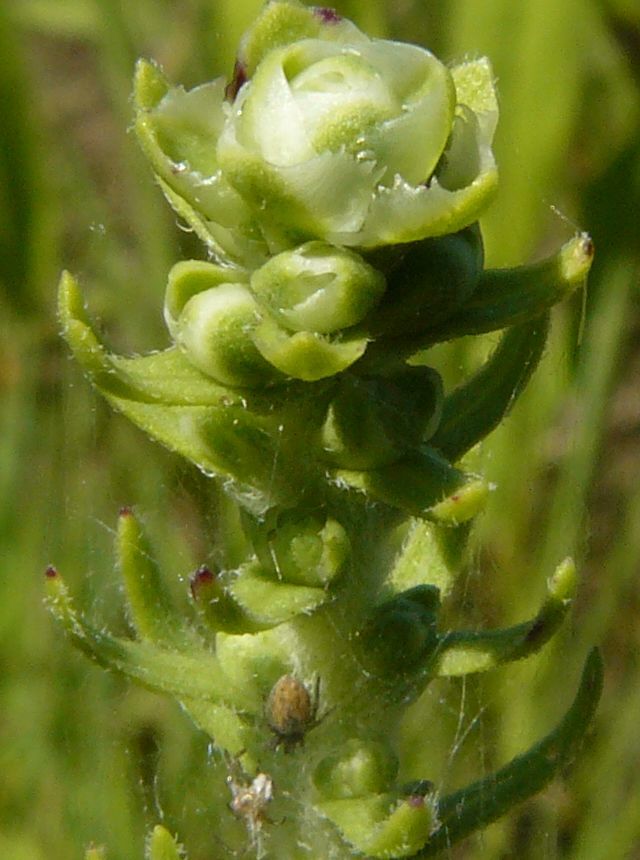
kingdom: Plantae
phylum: Tracheophyta
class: Magnoliopsida
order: Asterales
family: Asteraceae
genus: Liatris
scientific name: Liatris aspera
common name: Lacerate blazing-star
